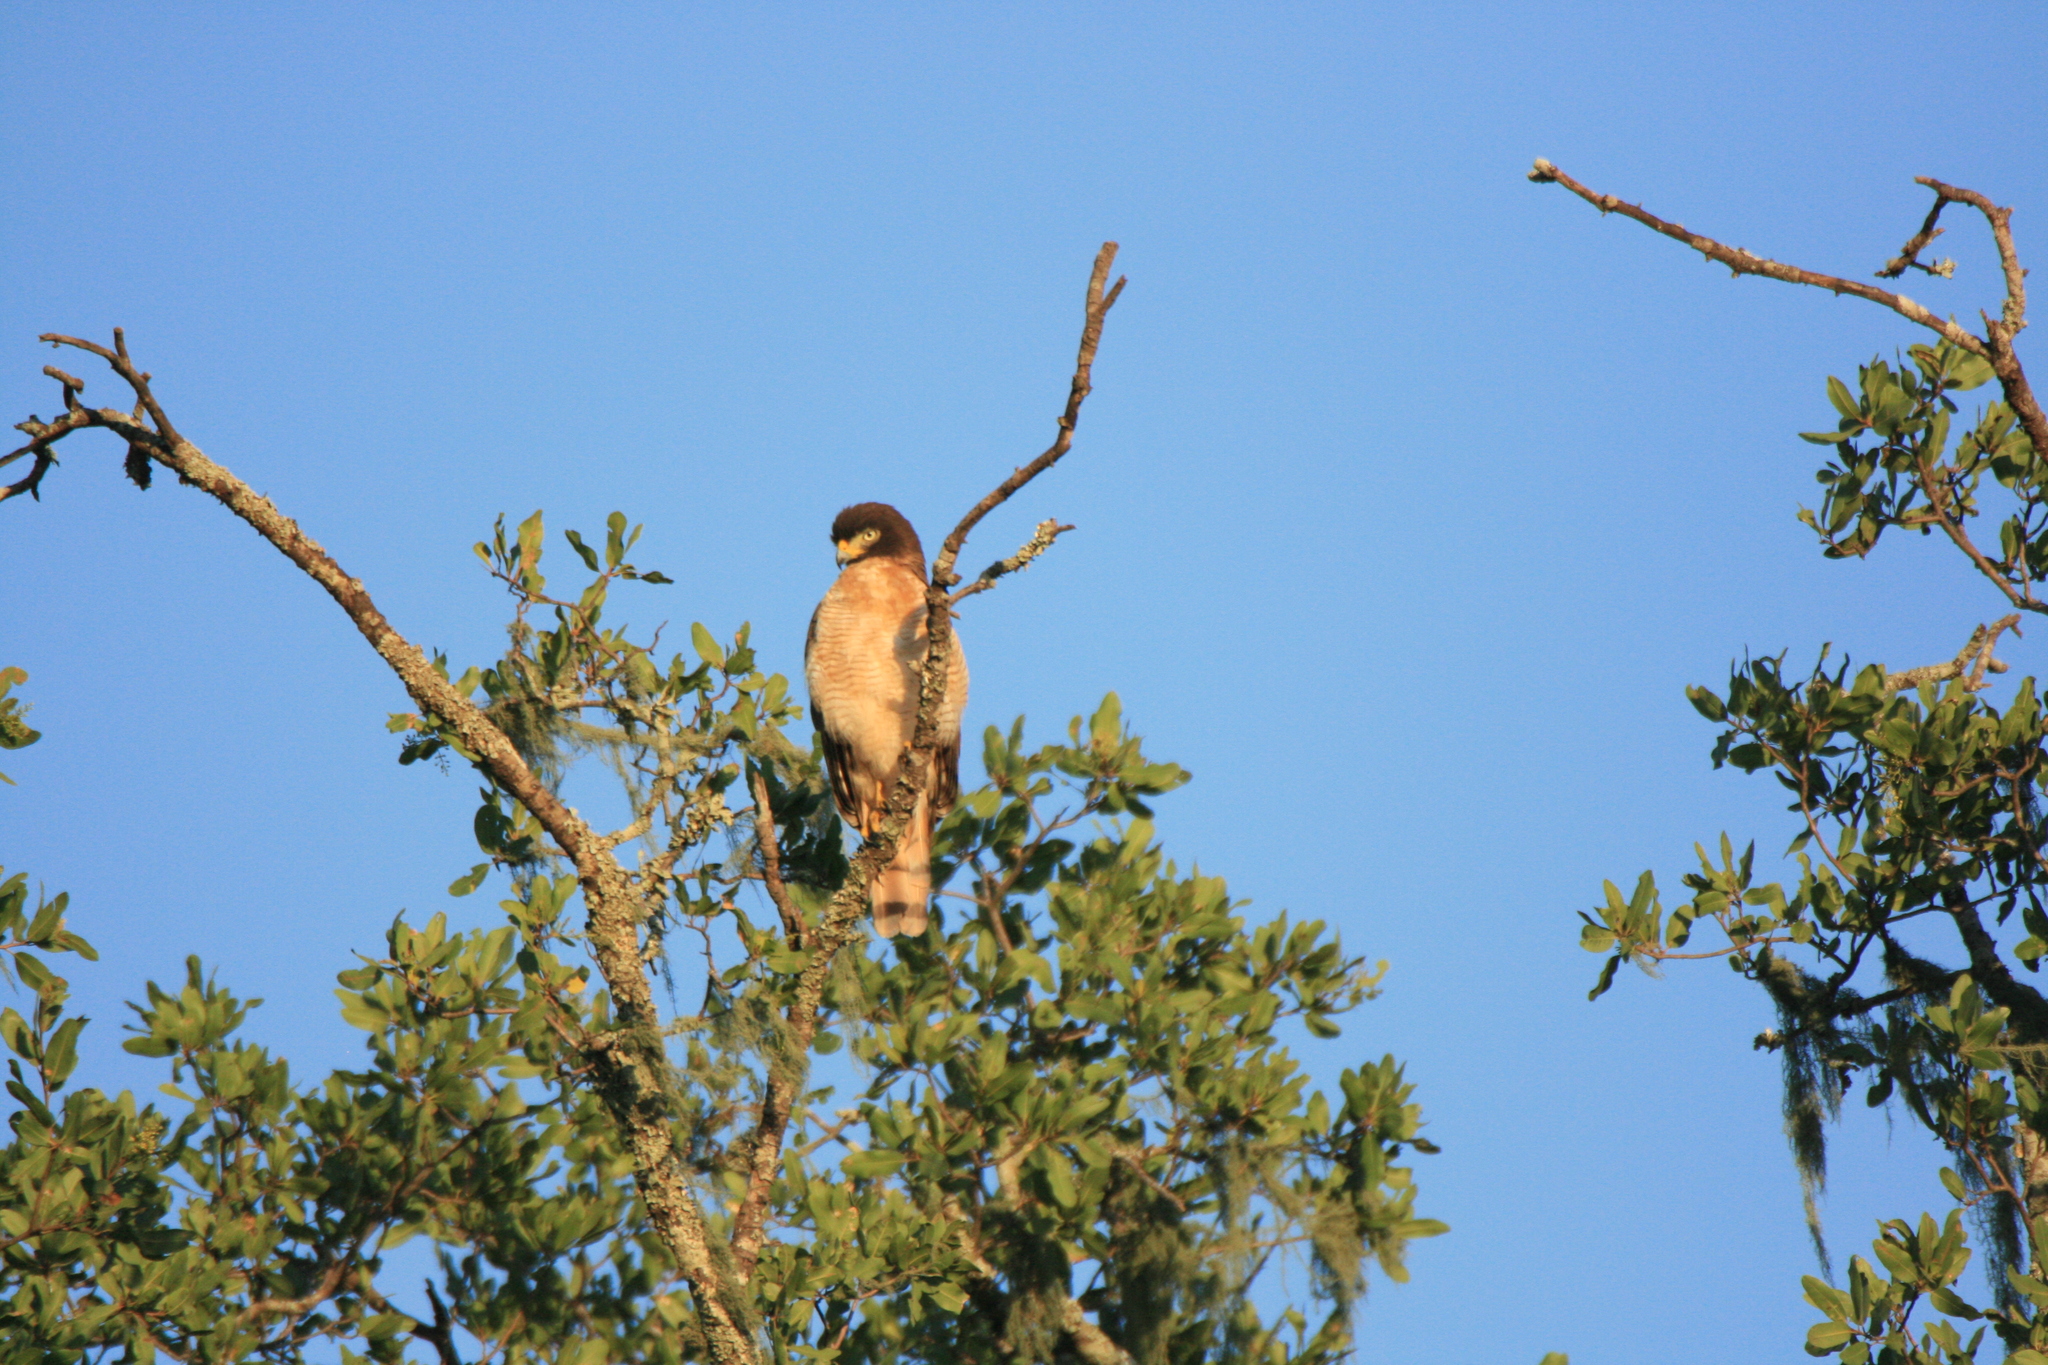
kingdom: Animalia
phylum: Chordata
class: Aves
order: Accipitriformes
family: Accipitridae
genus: Rupornis
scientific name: Rupornis magnirostris
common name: Roadside hawk
